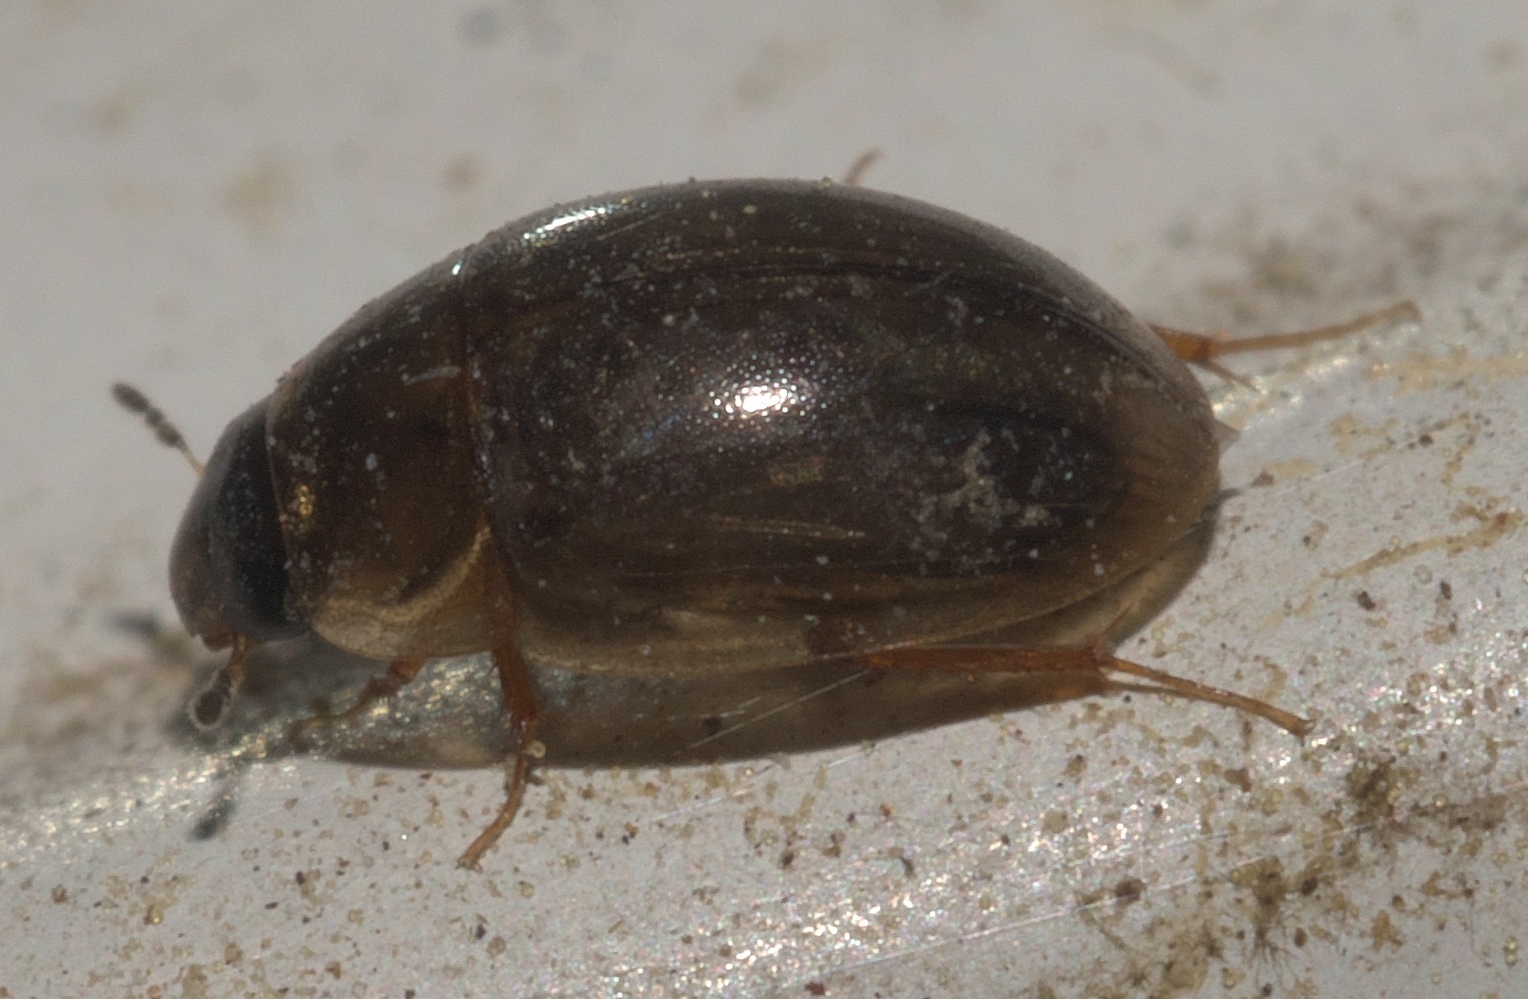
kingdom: Animalia
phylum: Arthropoda
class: Insecta
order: Coleoptera
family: Hydrophilidae
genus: Enochrus
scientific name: Enochrus
